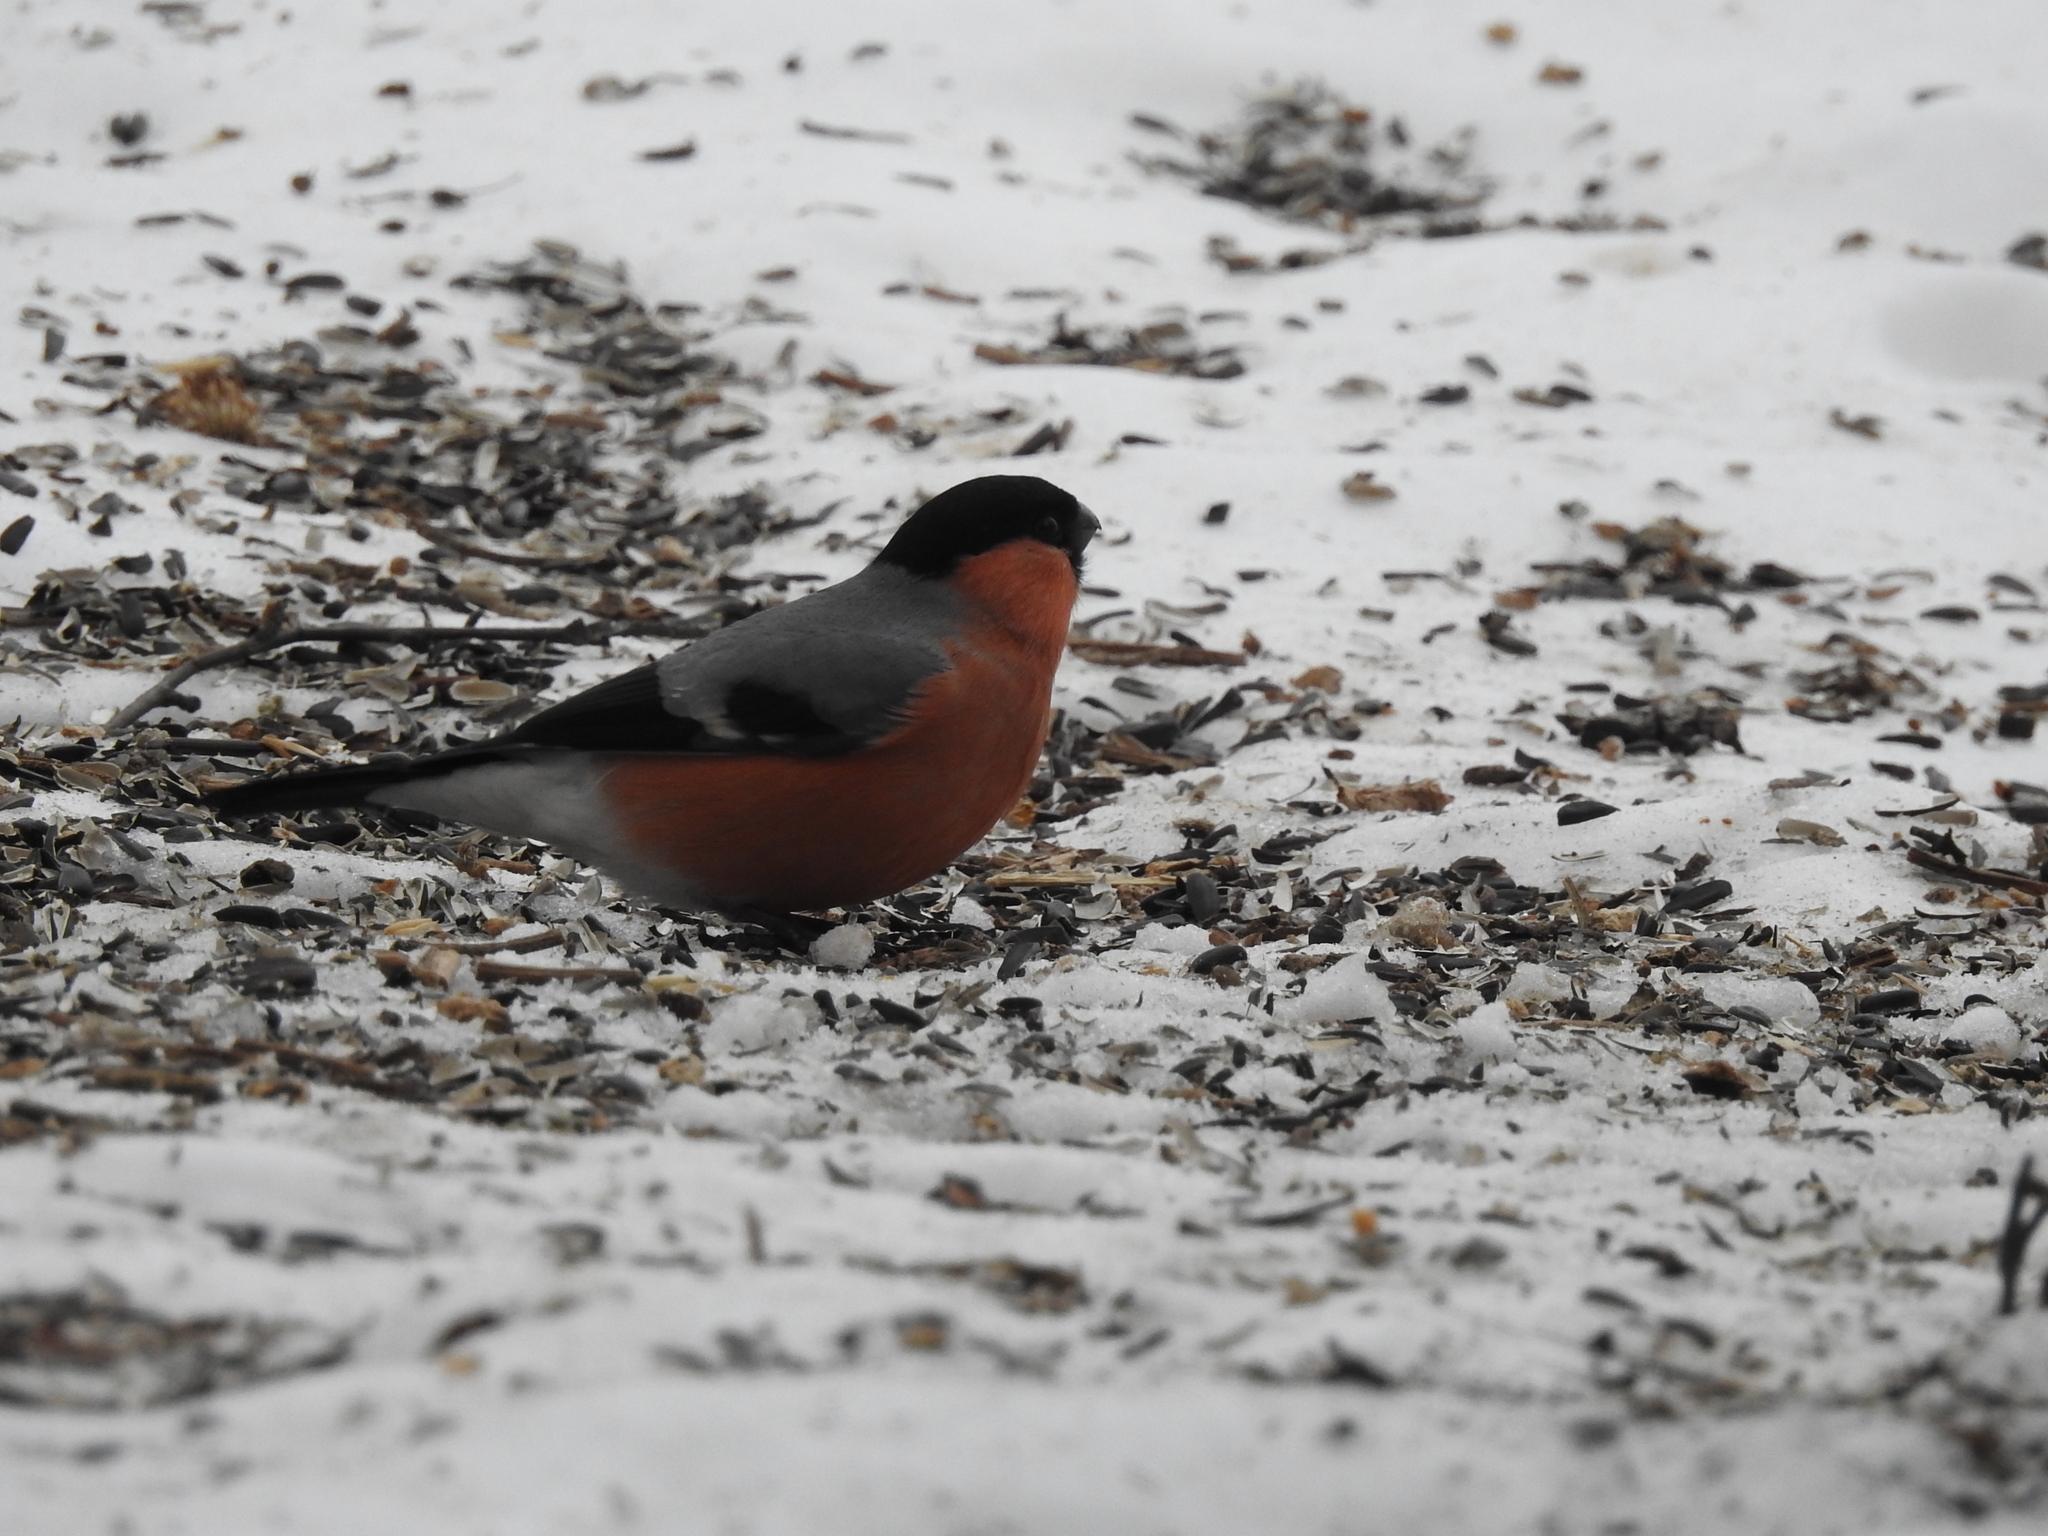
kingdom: Animalia
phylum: Chordata
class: Aves
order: Passeriformes
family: Fringillidae
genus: Pyrrhula
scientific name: Pyrrhula pyrrhula
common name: Eurasian bullfinch
